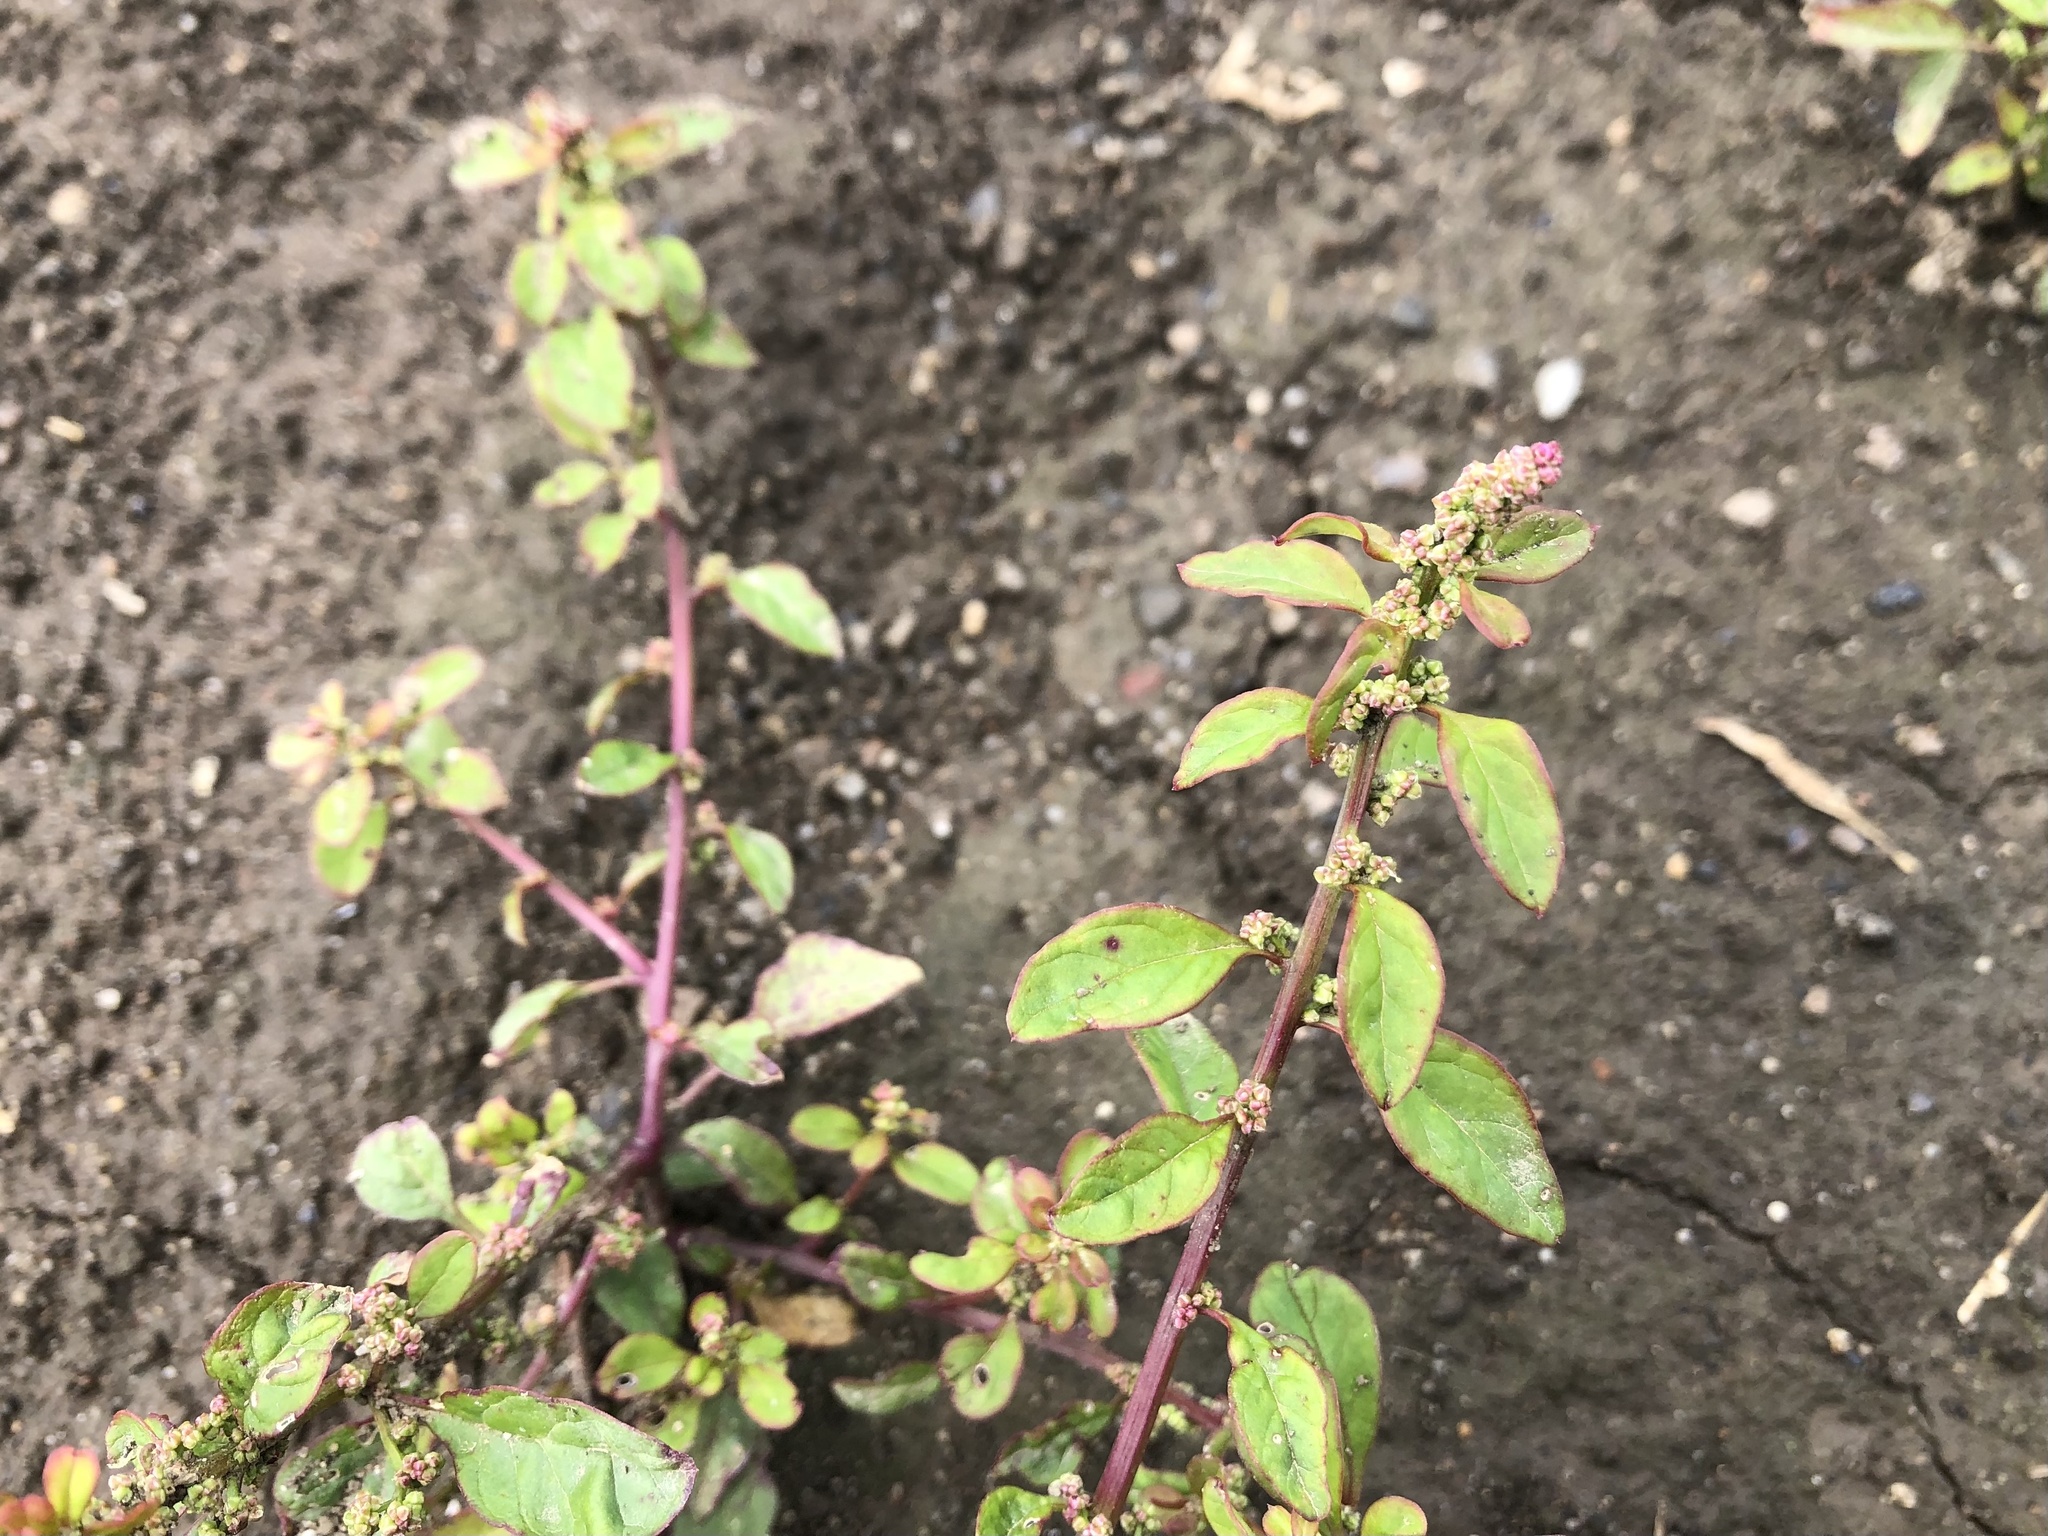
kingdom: Plantae
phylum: Tracheophyta
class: Magnoliopsida
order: Caryophyllales
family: Amaranthaceae
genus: Lipandra
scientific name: Lipandra polysperma
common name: Many-seed goosefoot
